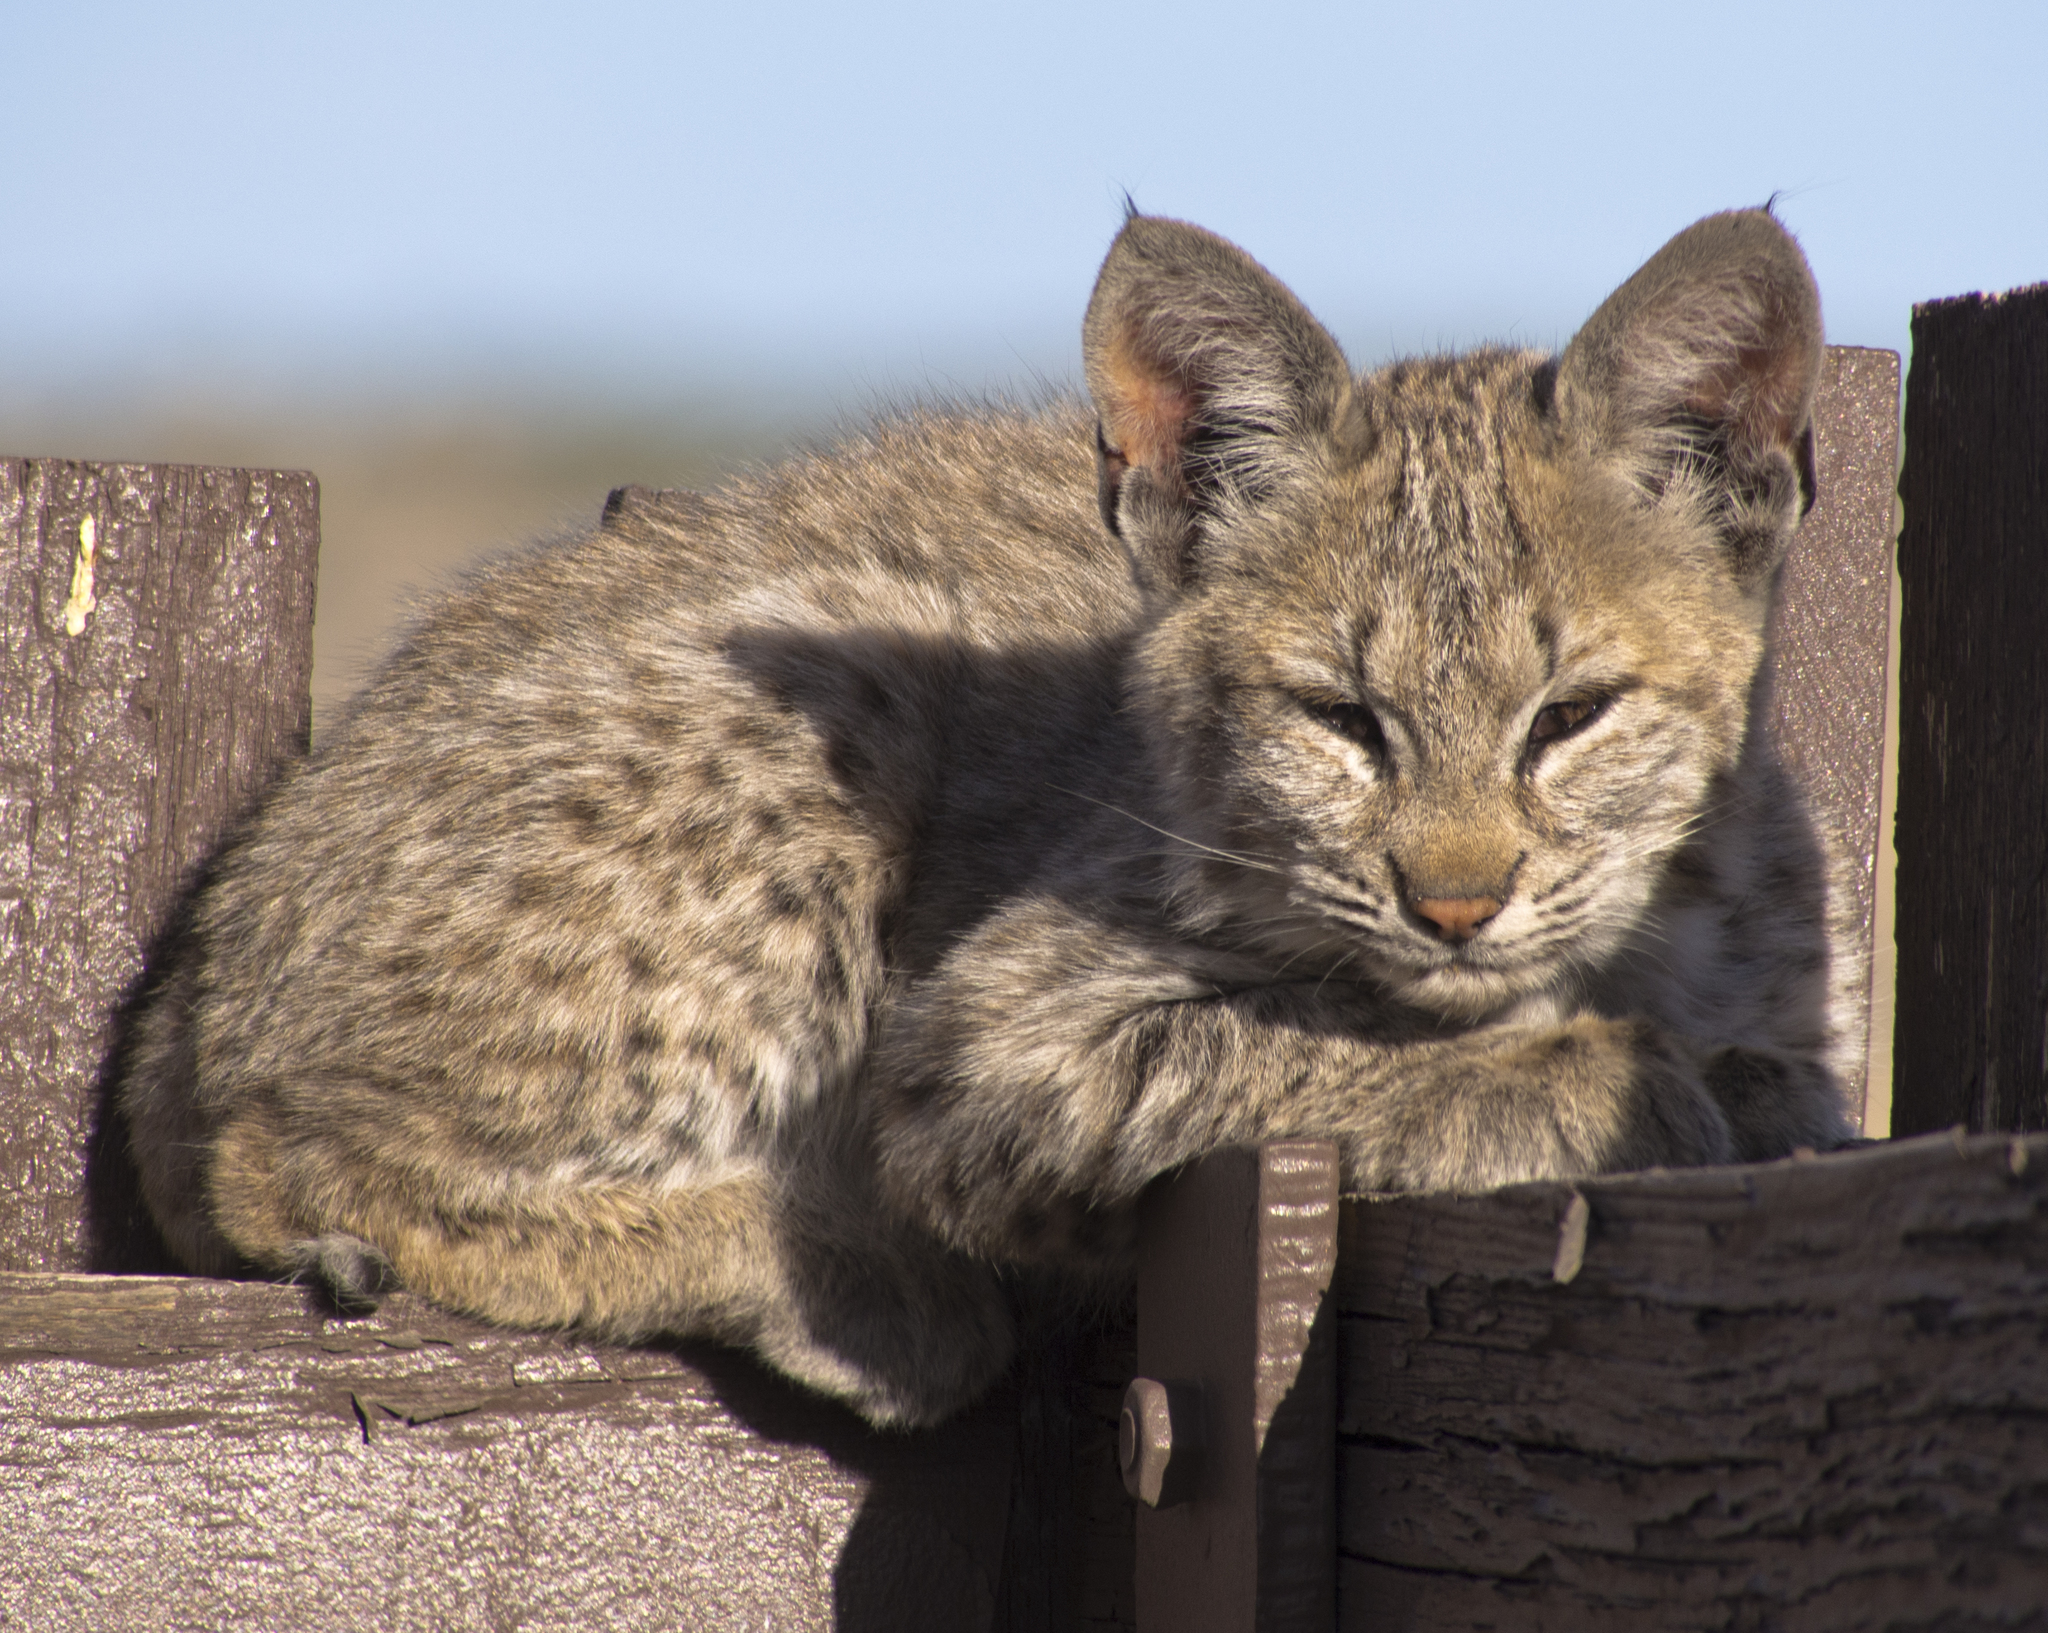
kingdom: Animalia
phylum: Chordata
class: Mammalia
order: Carnivora
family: Felidae
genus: Lynx
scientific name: Lynx rufus
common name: Bobcat
